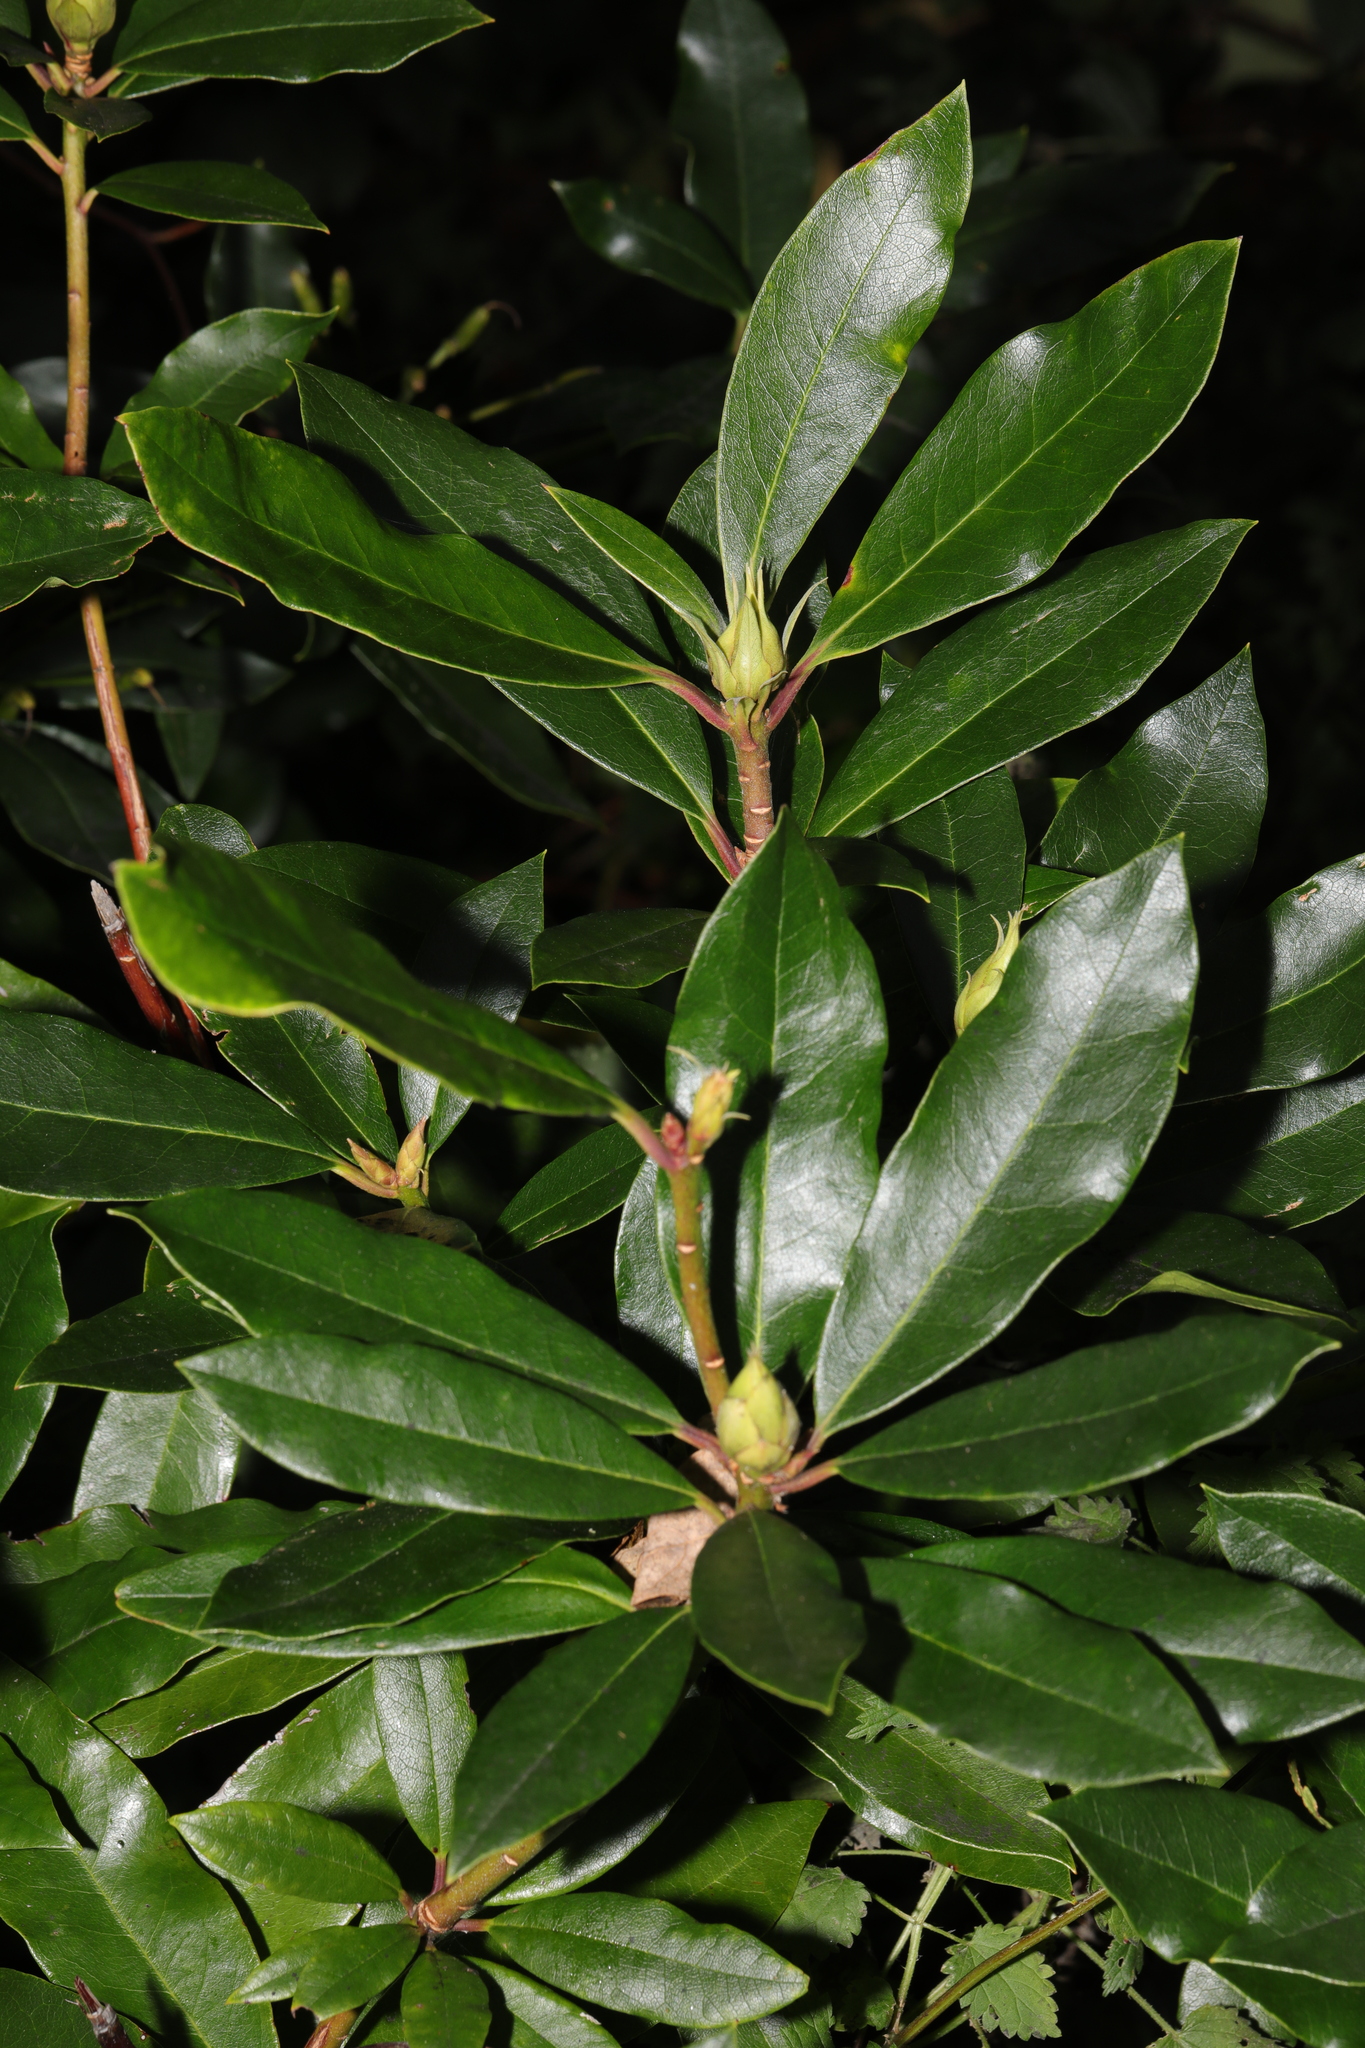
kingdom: Plantae
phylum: Tracheophyta
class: Magnoliopsida
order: Ericales
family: Ericaceae
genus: Rhododendron
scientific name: Rhododendron ponticum
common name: Rhododendron
